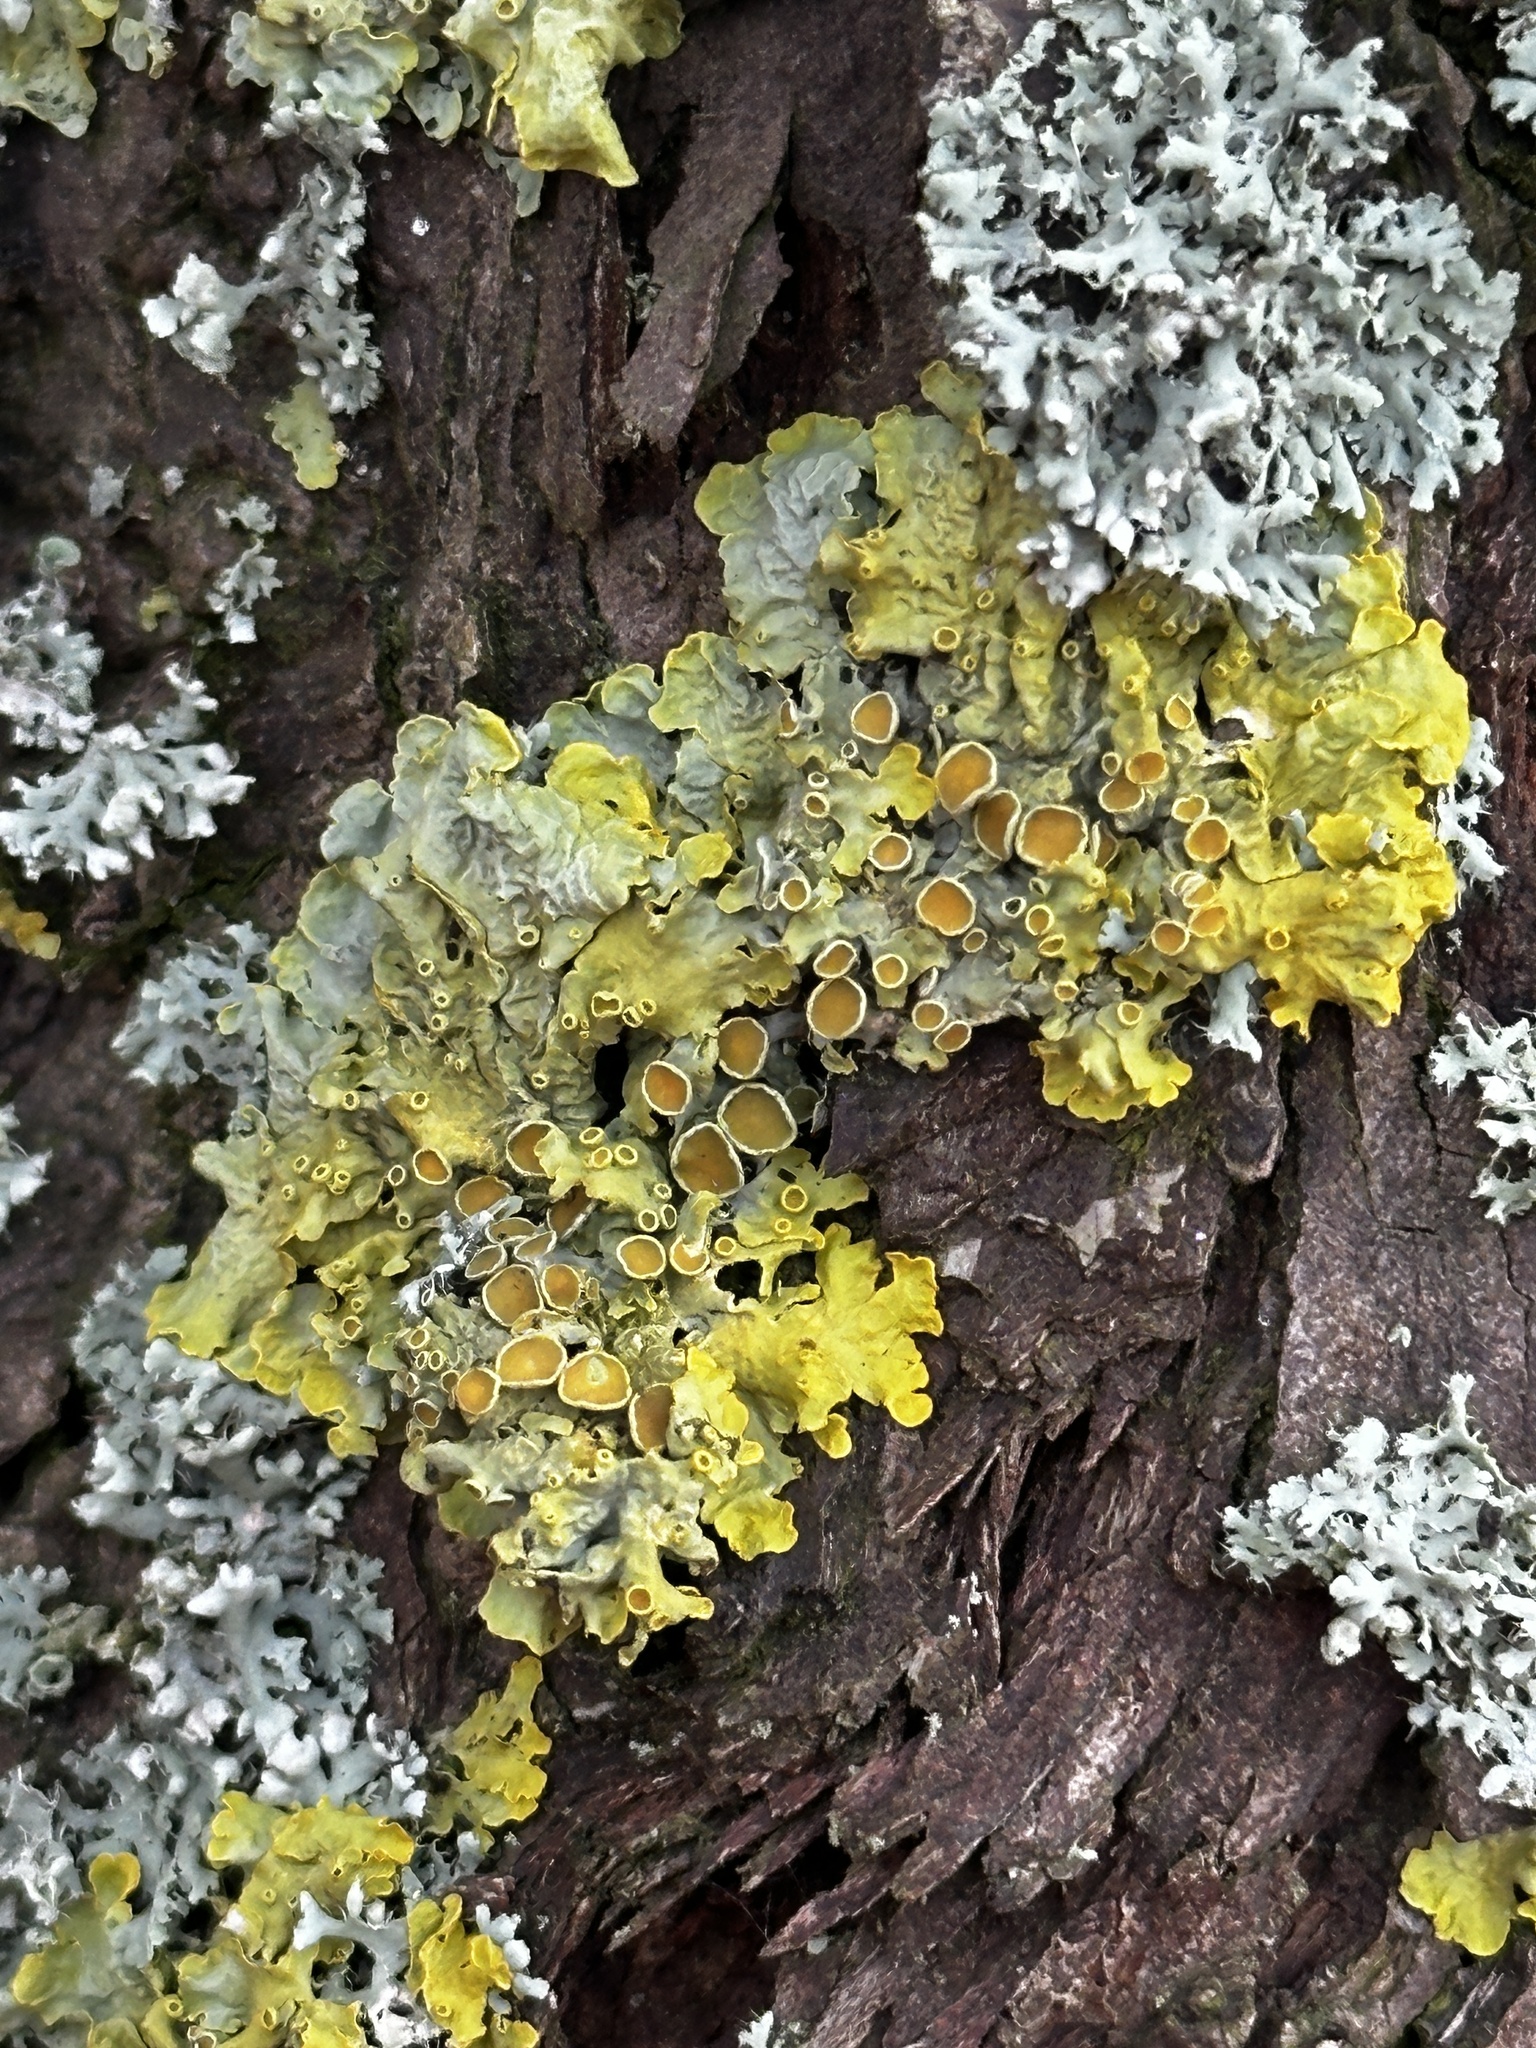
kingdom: Fungi
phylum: Ascomycota
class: Lecanoromycetes
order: Teloschistales
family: Teloschistaceae
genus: Xanthoria
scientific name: Xanthoria parietina
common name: Common orange lichen
